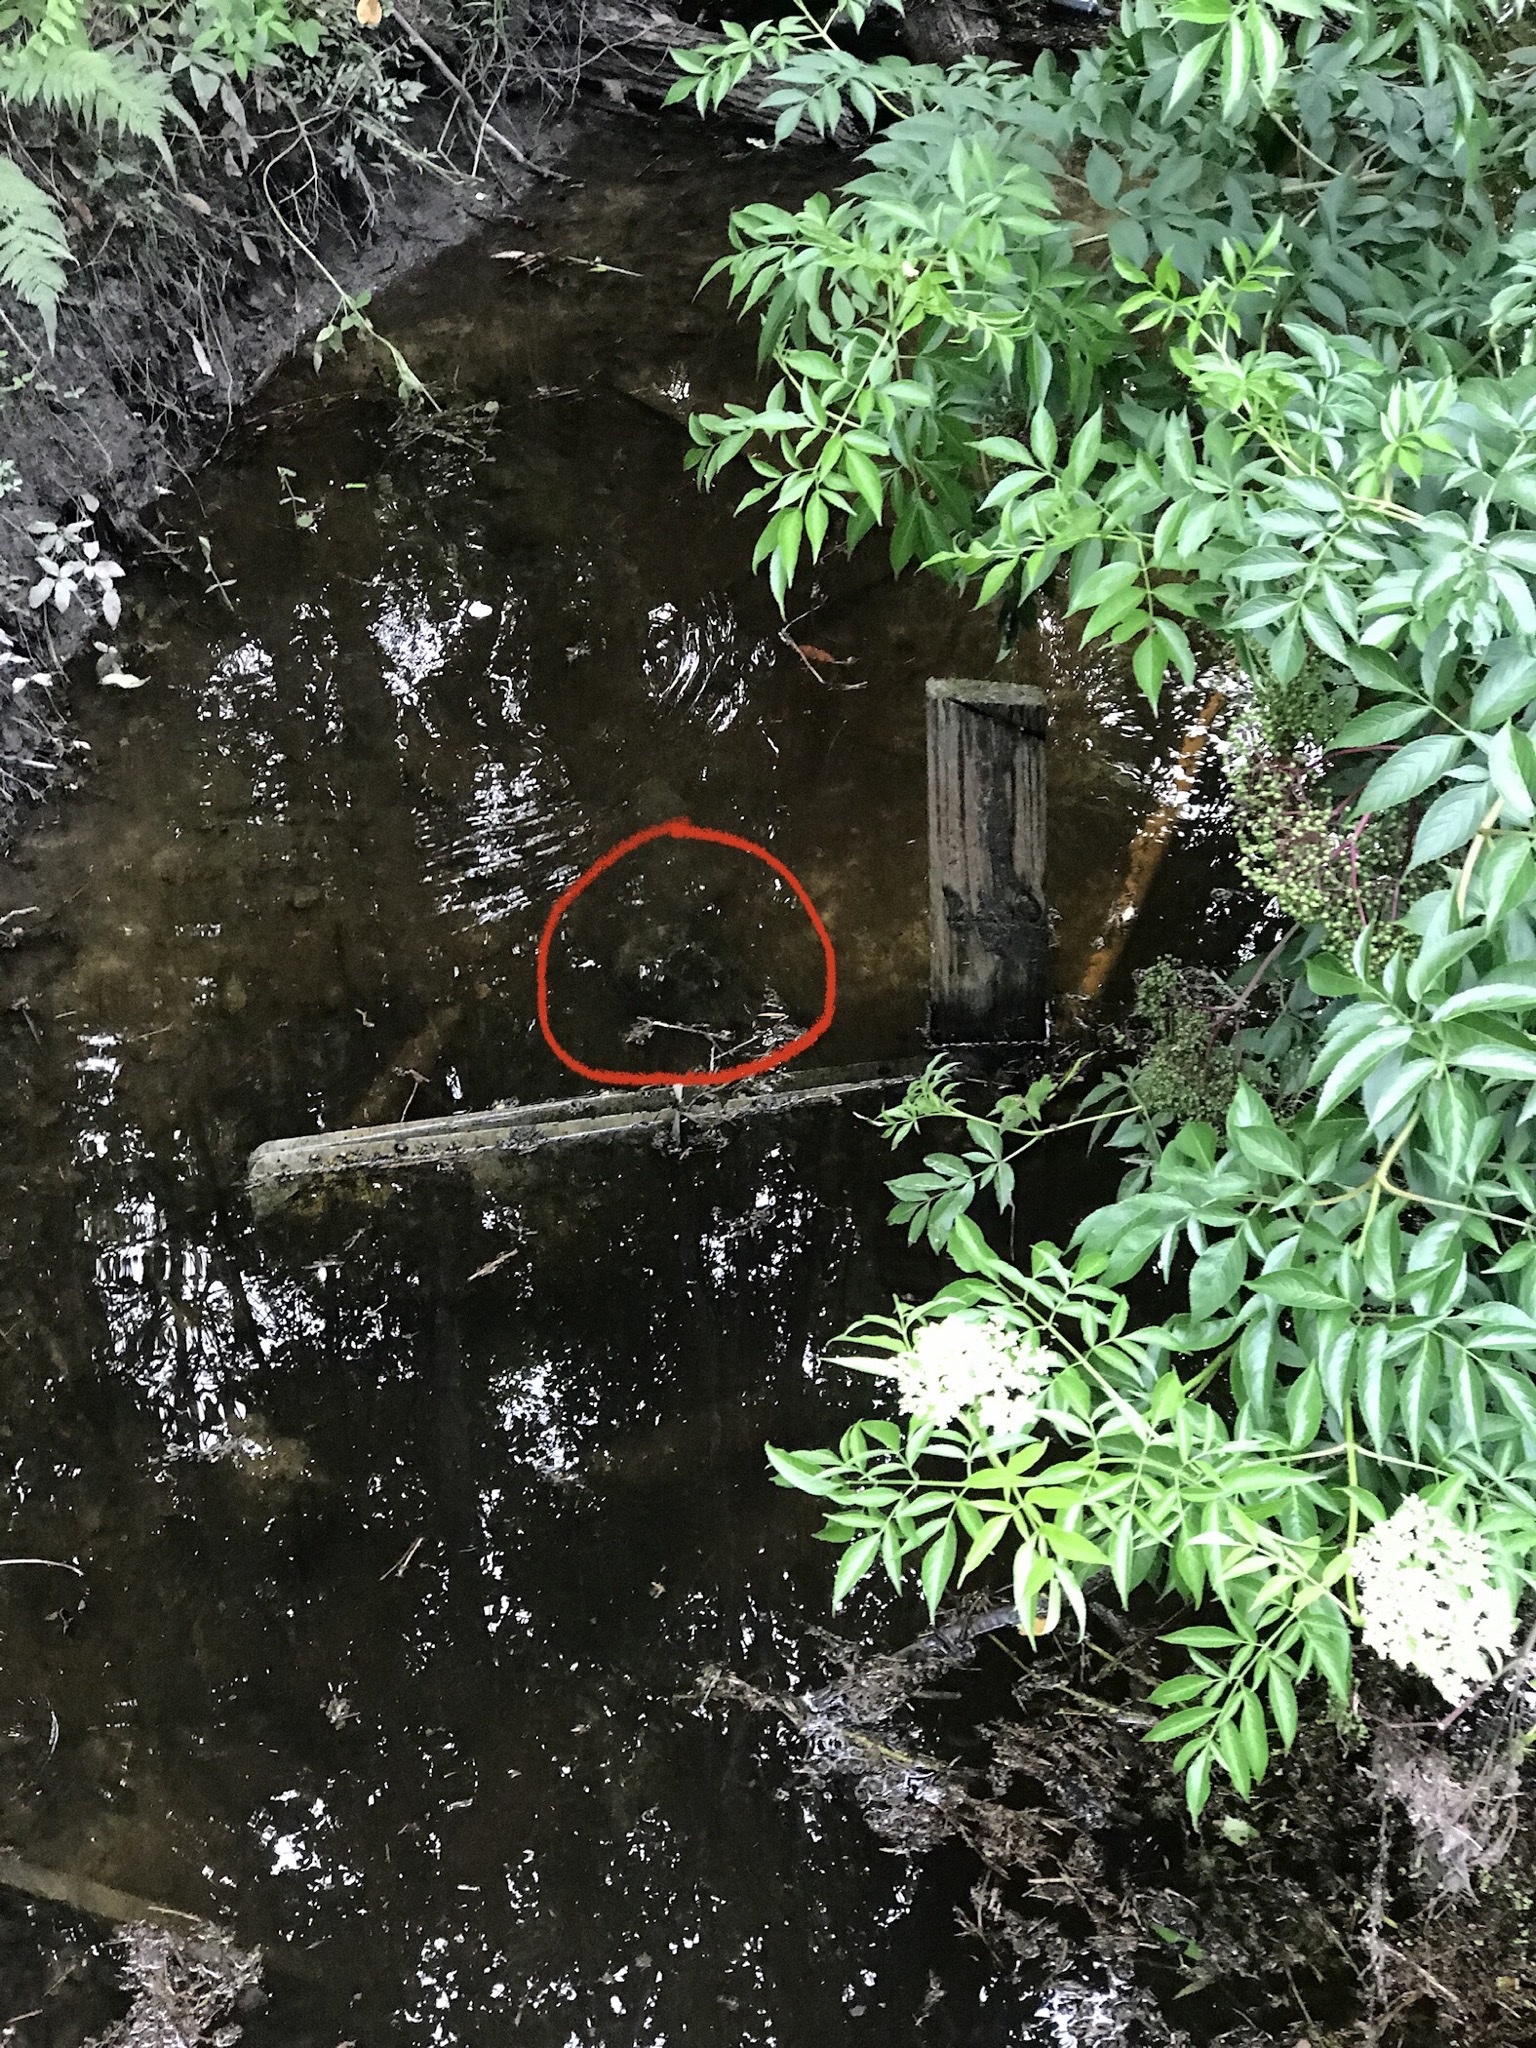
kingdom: Animalia
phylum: Chordata
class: Testudines
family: Chelydridae
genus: Chelydra
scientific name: Chelydra serpentina
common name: Common snapping turtle
